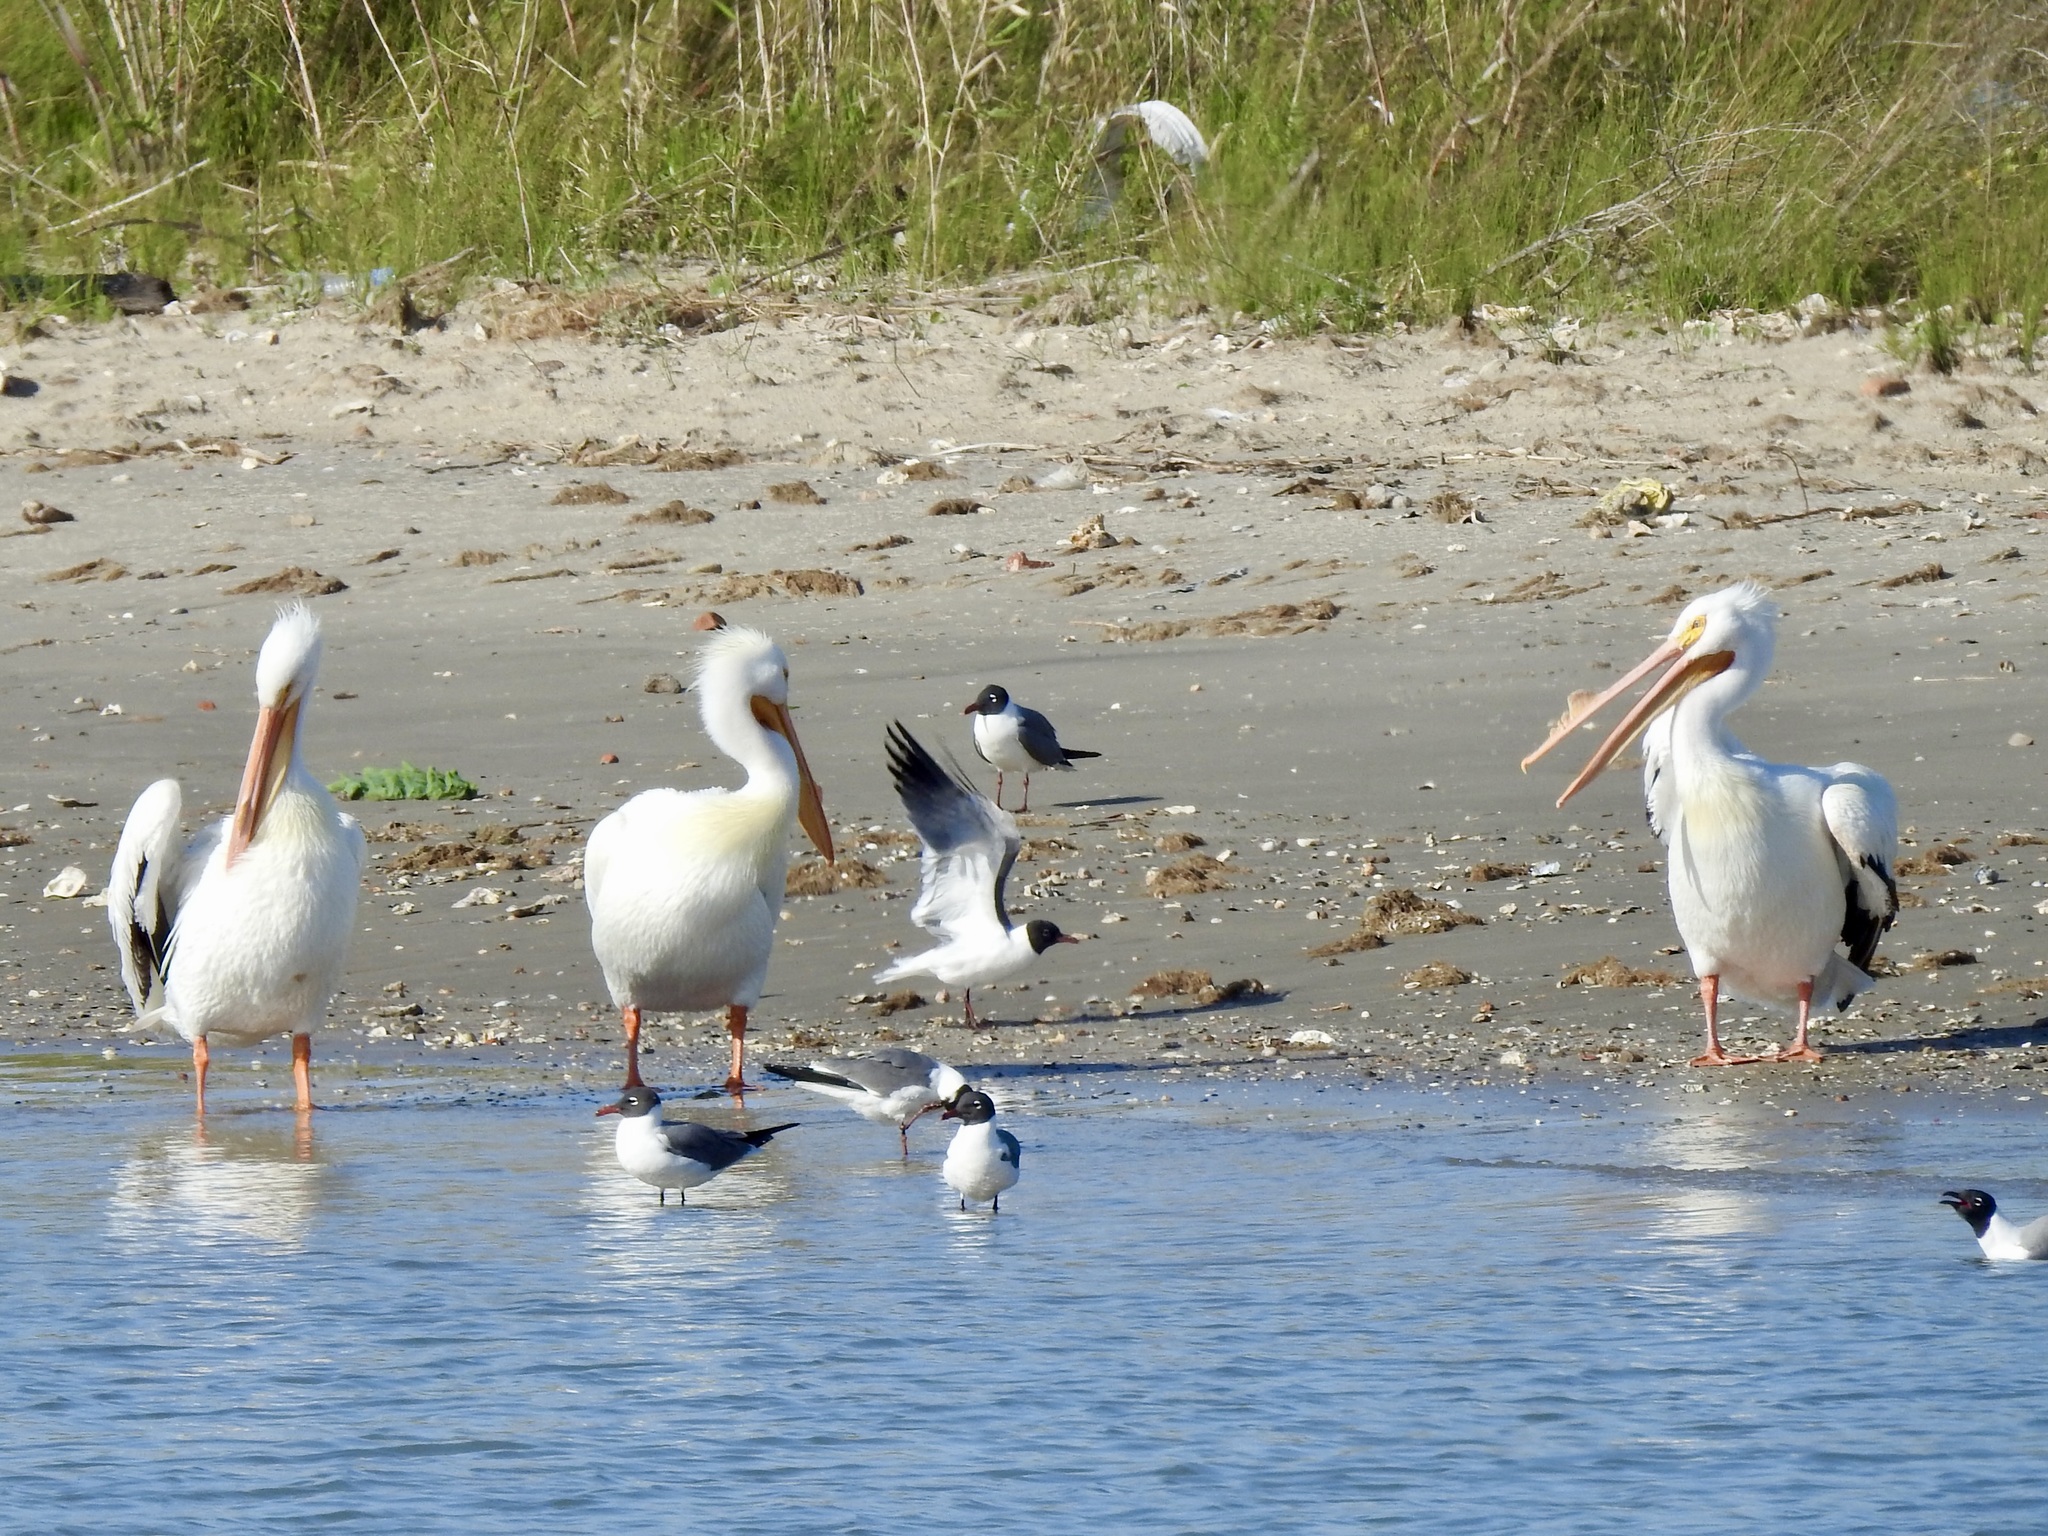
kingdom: Animalia
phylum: Chordata
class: Aves
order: Pelecaniformes
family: Pelecanidae
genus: Pelecanus
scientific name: Pelecanus erythrorhynchos
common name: American white pelican
